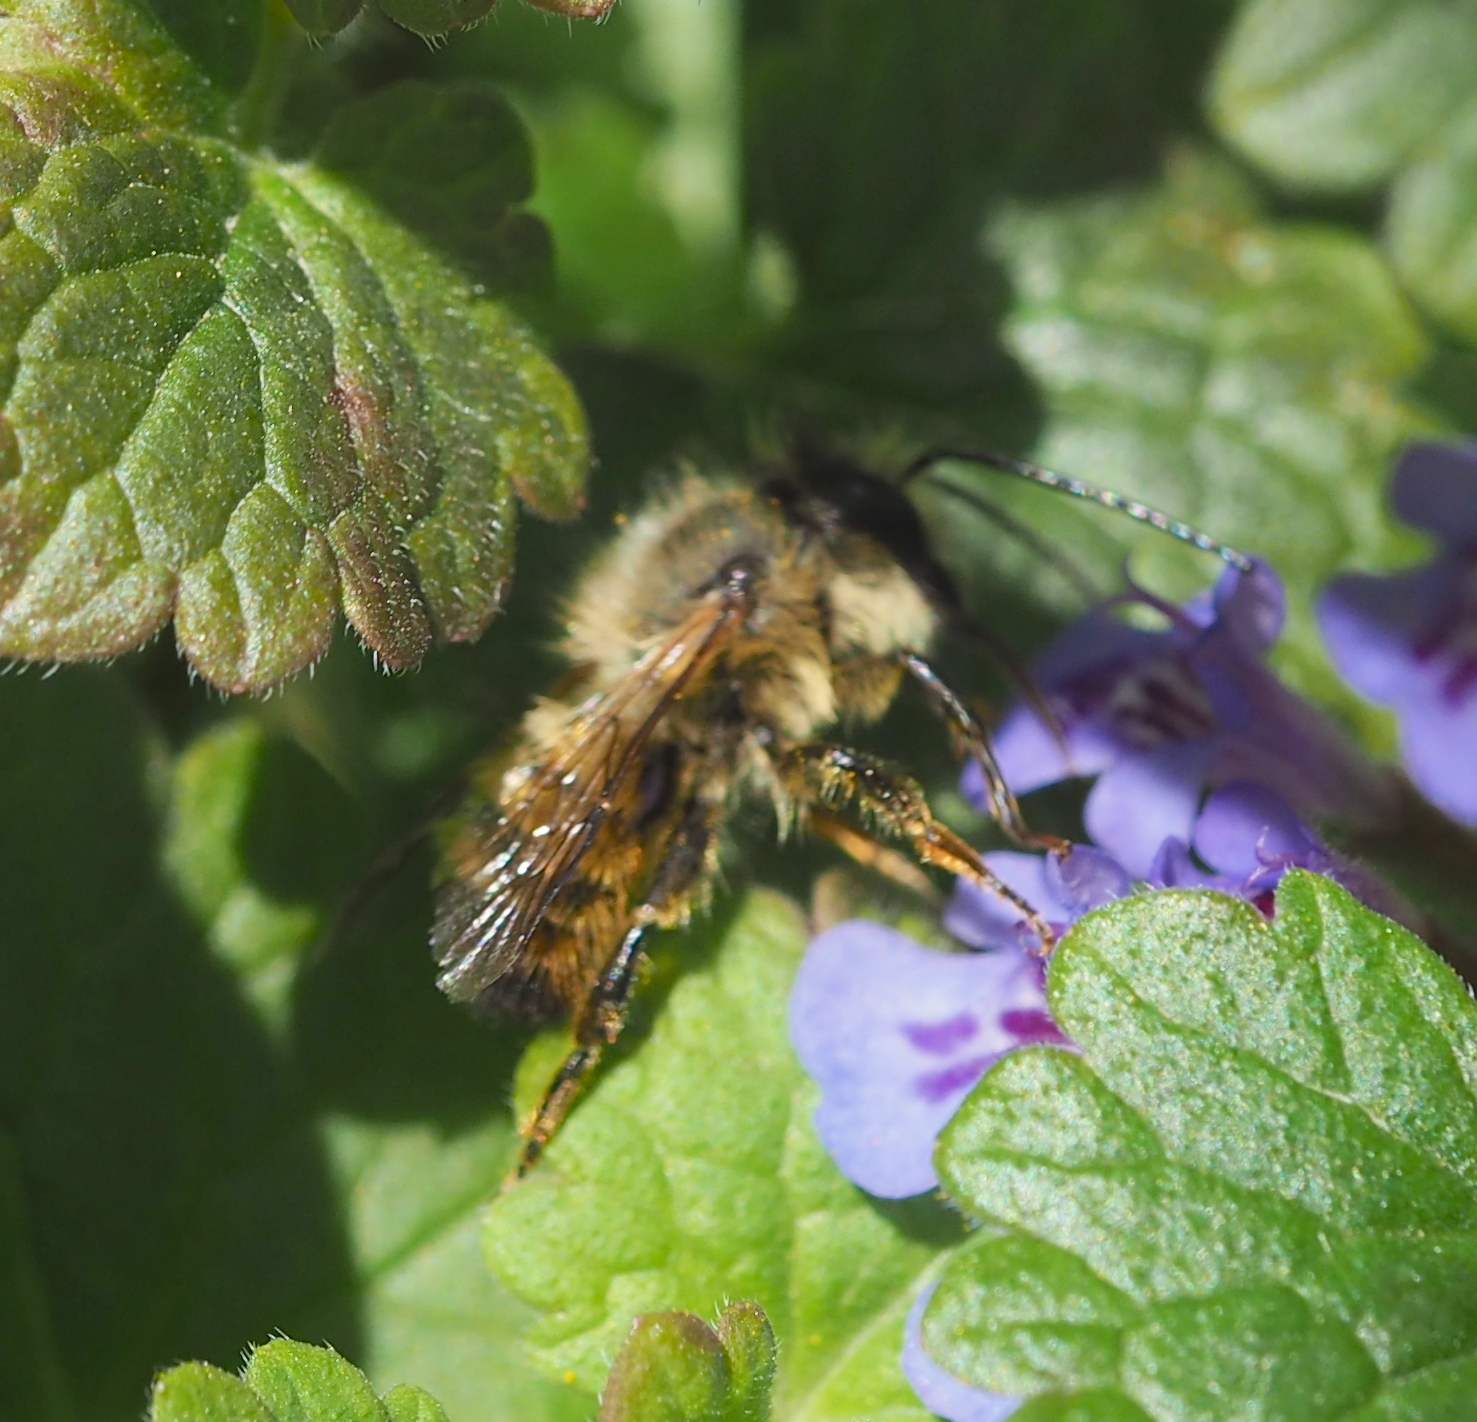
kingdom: Animalia
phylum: Arthropoda
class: Insecta
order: Hymenoptera
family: Megachilidae
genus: Osmia
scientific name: Osmia bicornis
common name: Red mason bee
